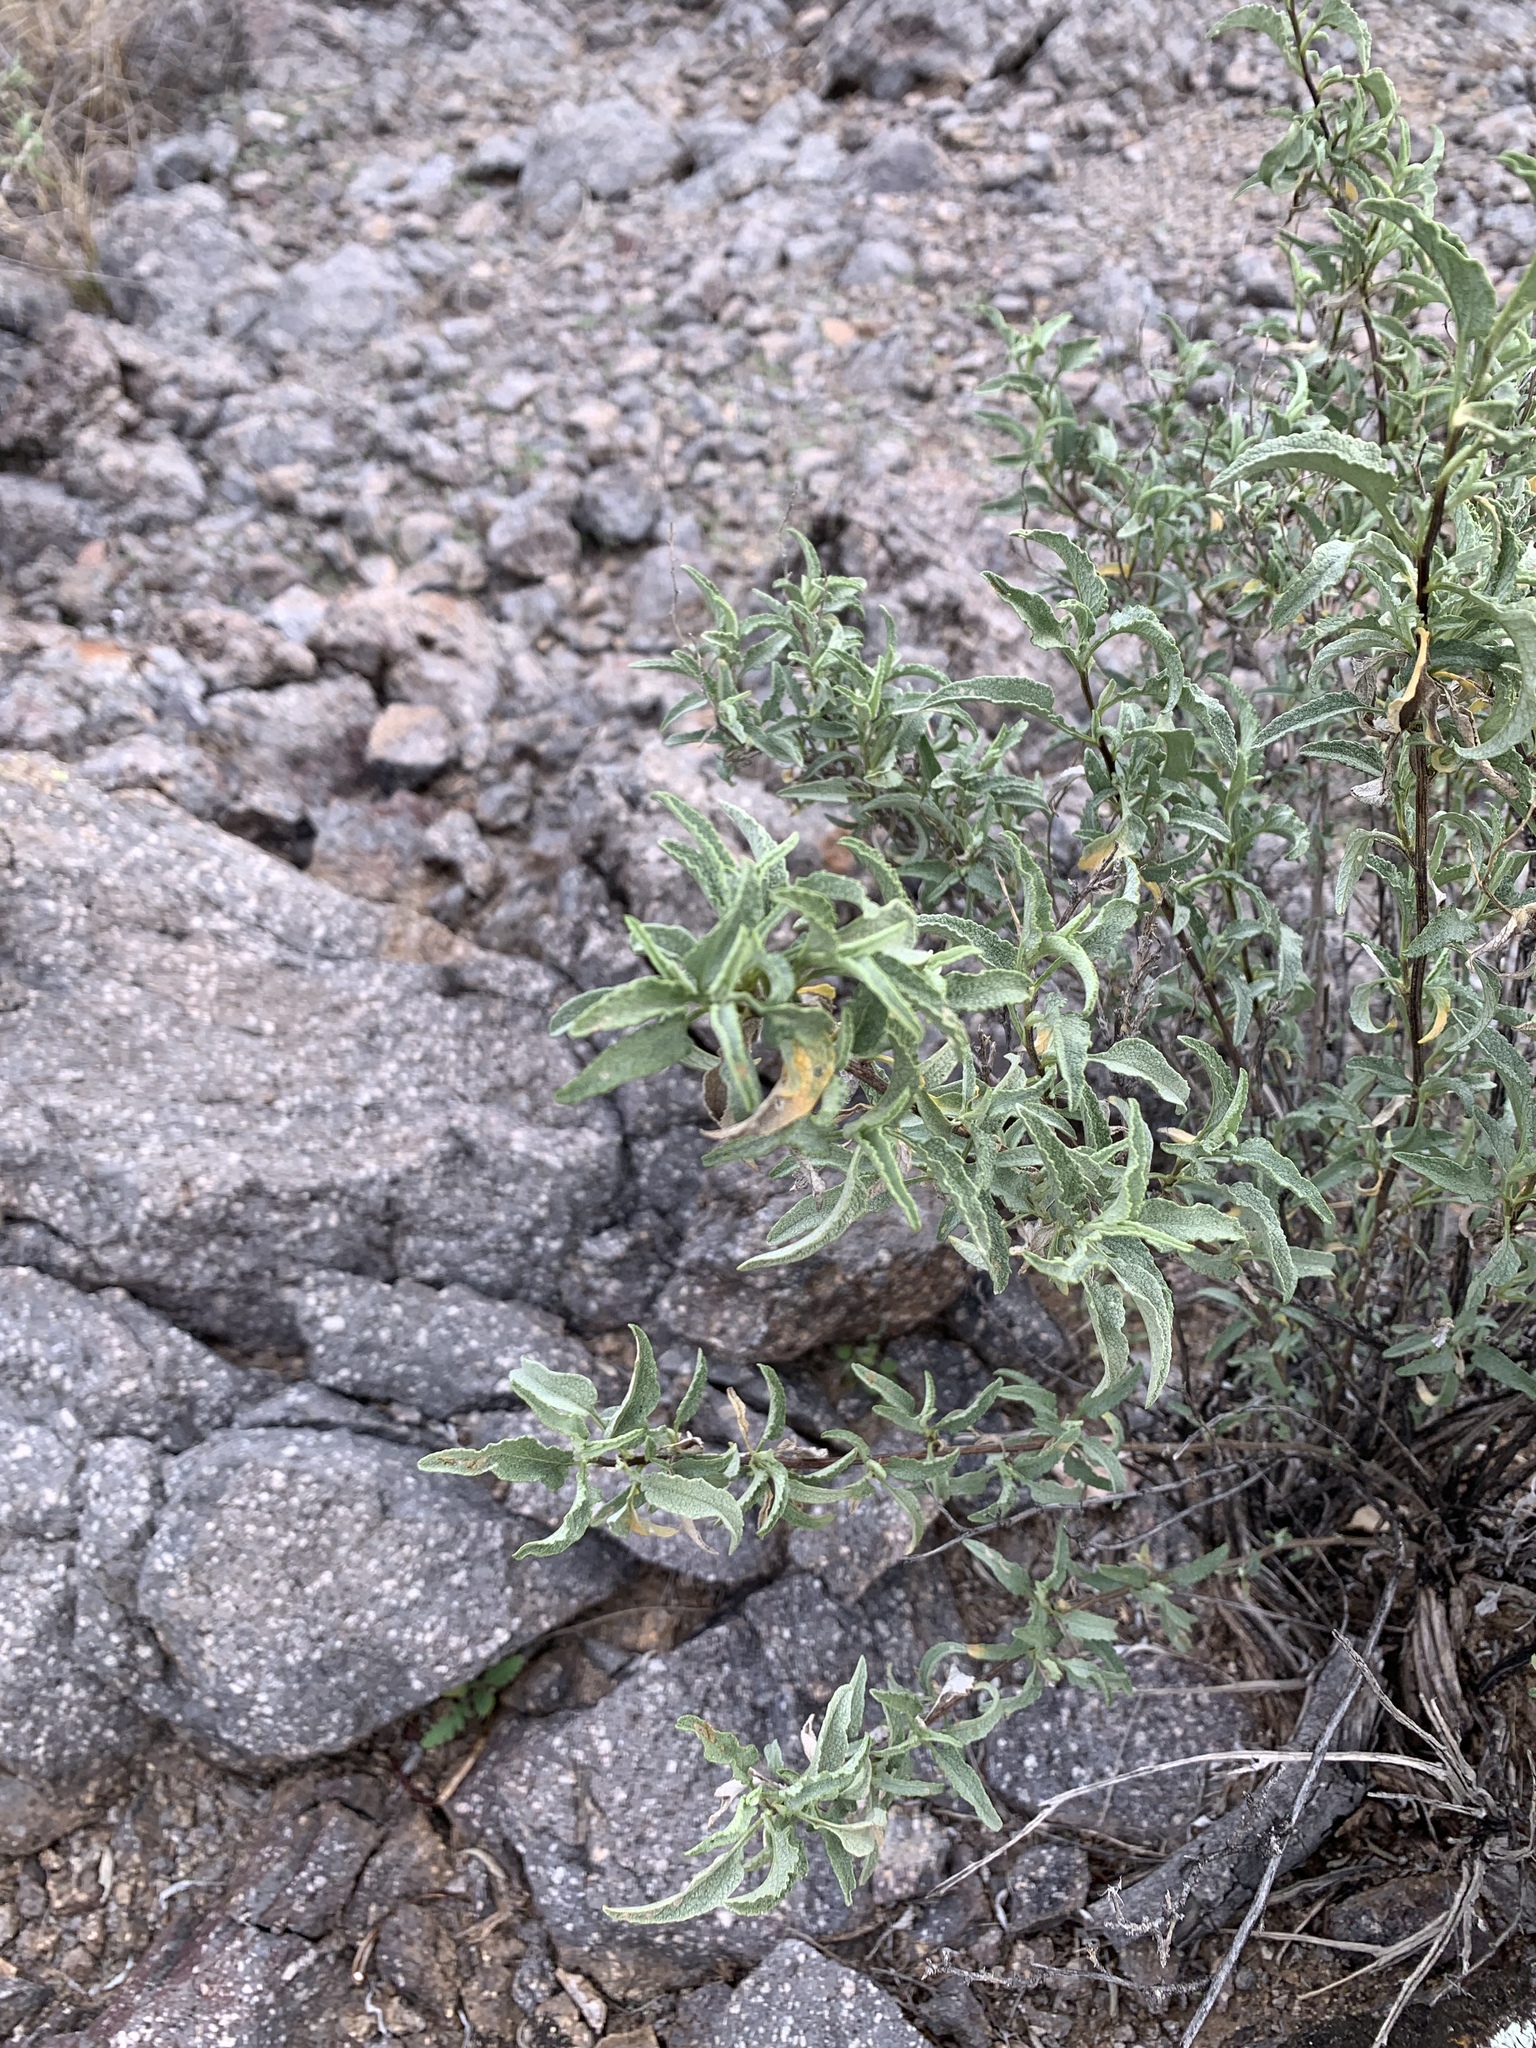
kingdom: Plantae
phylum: Tracheophyta
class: Magnoliopsida
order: Asterales
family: Asteraceae
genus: Ambrosia
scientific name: Ambrosia deltoidea
